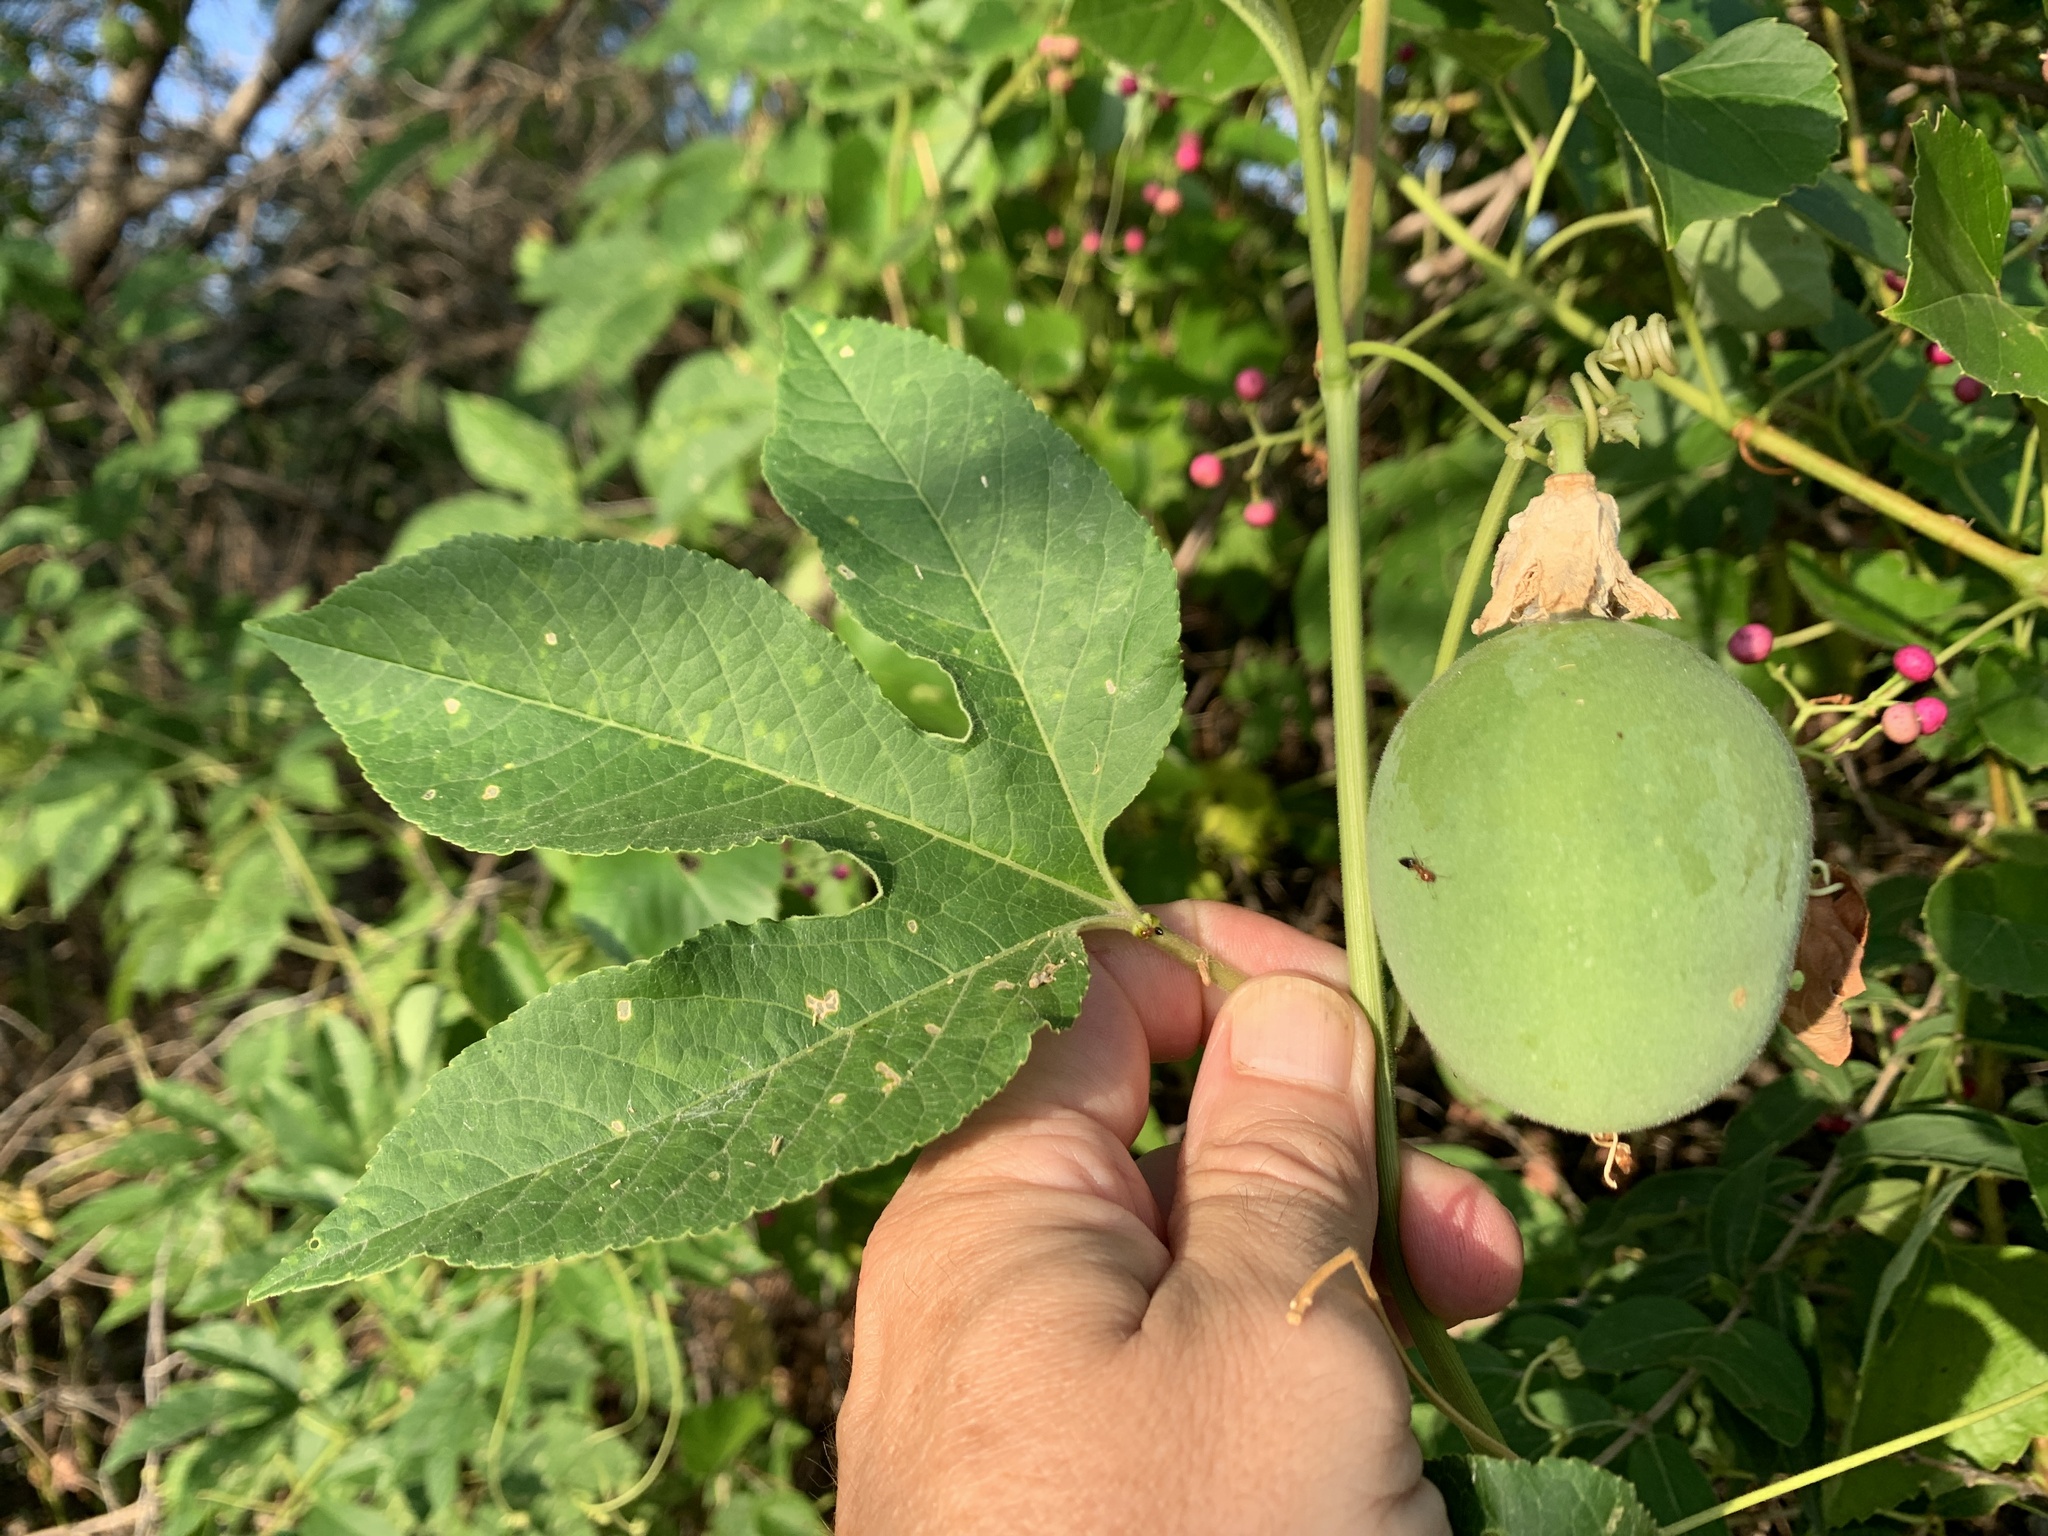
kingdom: Plantae
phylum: Tracheophyta
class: Magnoliopsida
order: Malpighiales
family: Passifloraceae
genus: Passiflora
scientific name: Passiflora incarnata
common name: Apricot-vine
